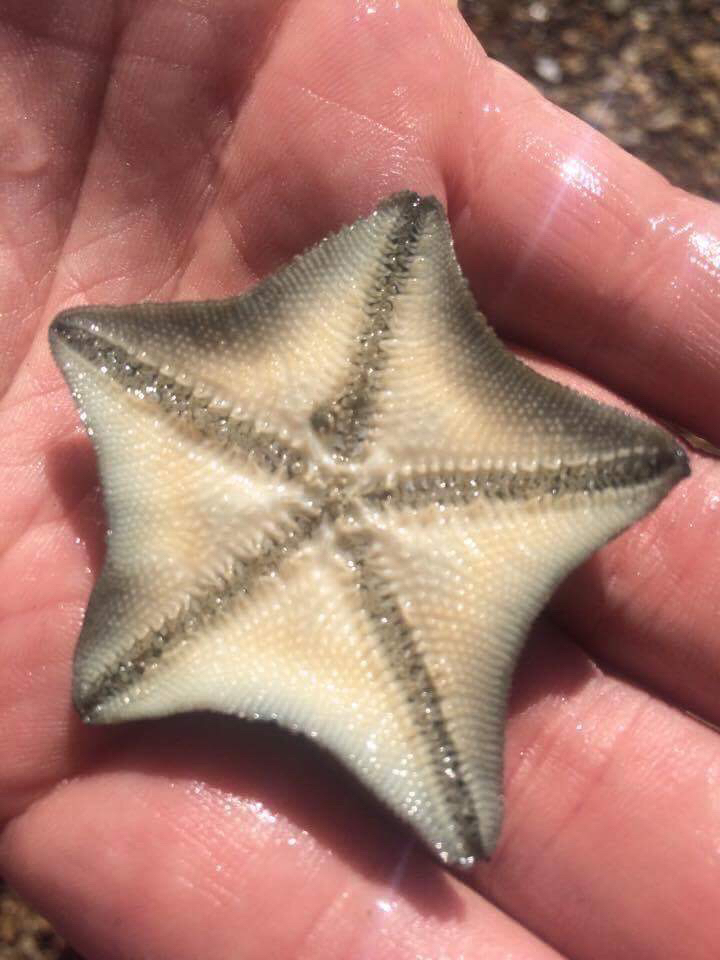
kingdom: Animalia
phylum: Echinodermata
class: Asteroidea
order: Valvatida
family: Asterinidae
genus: Patiriella
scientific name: Patiriella regularis
